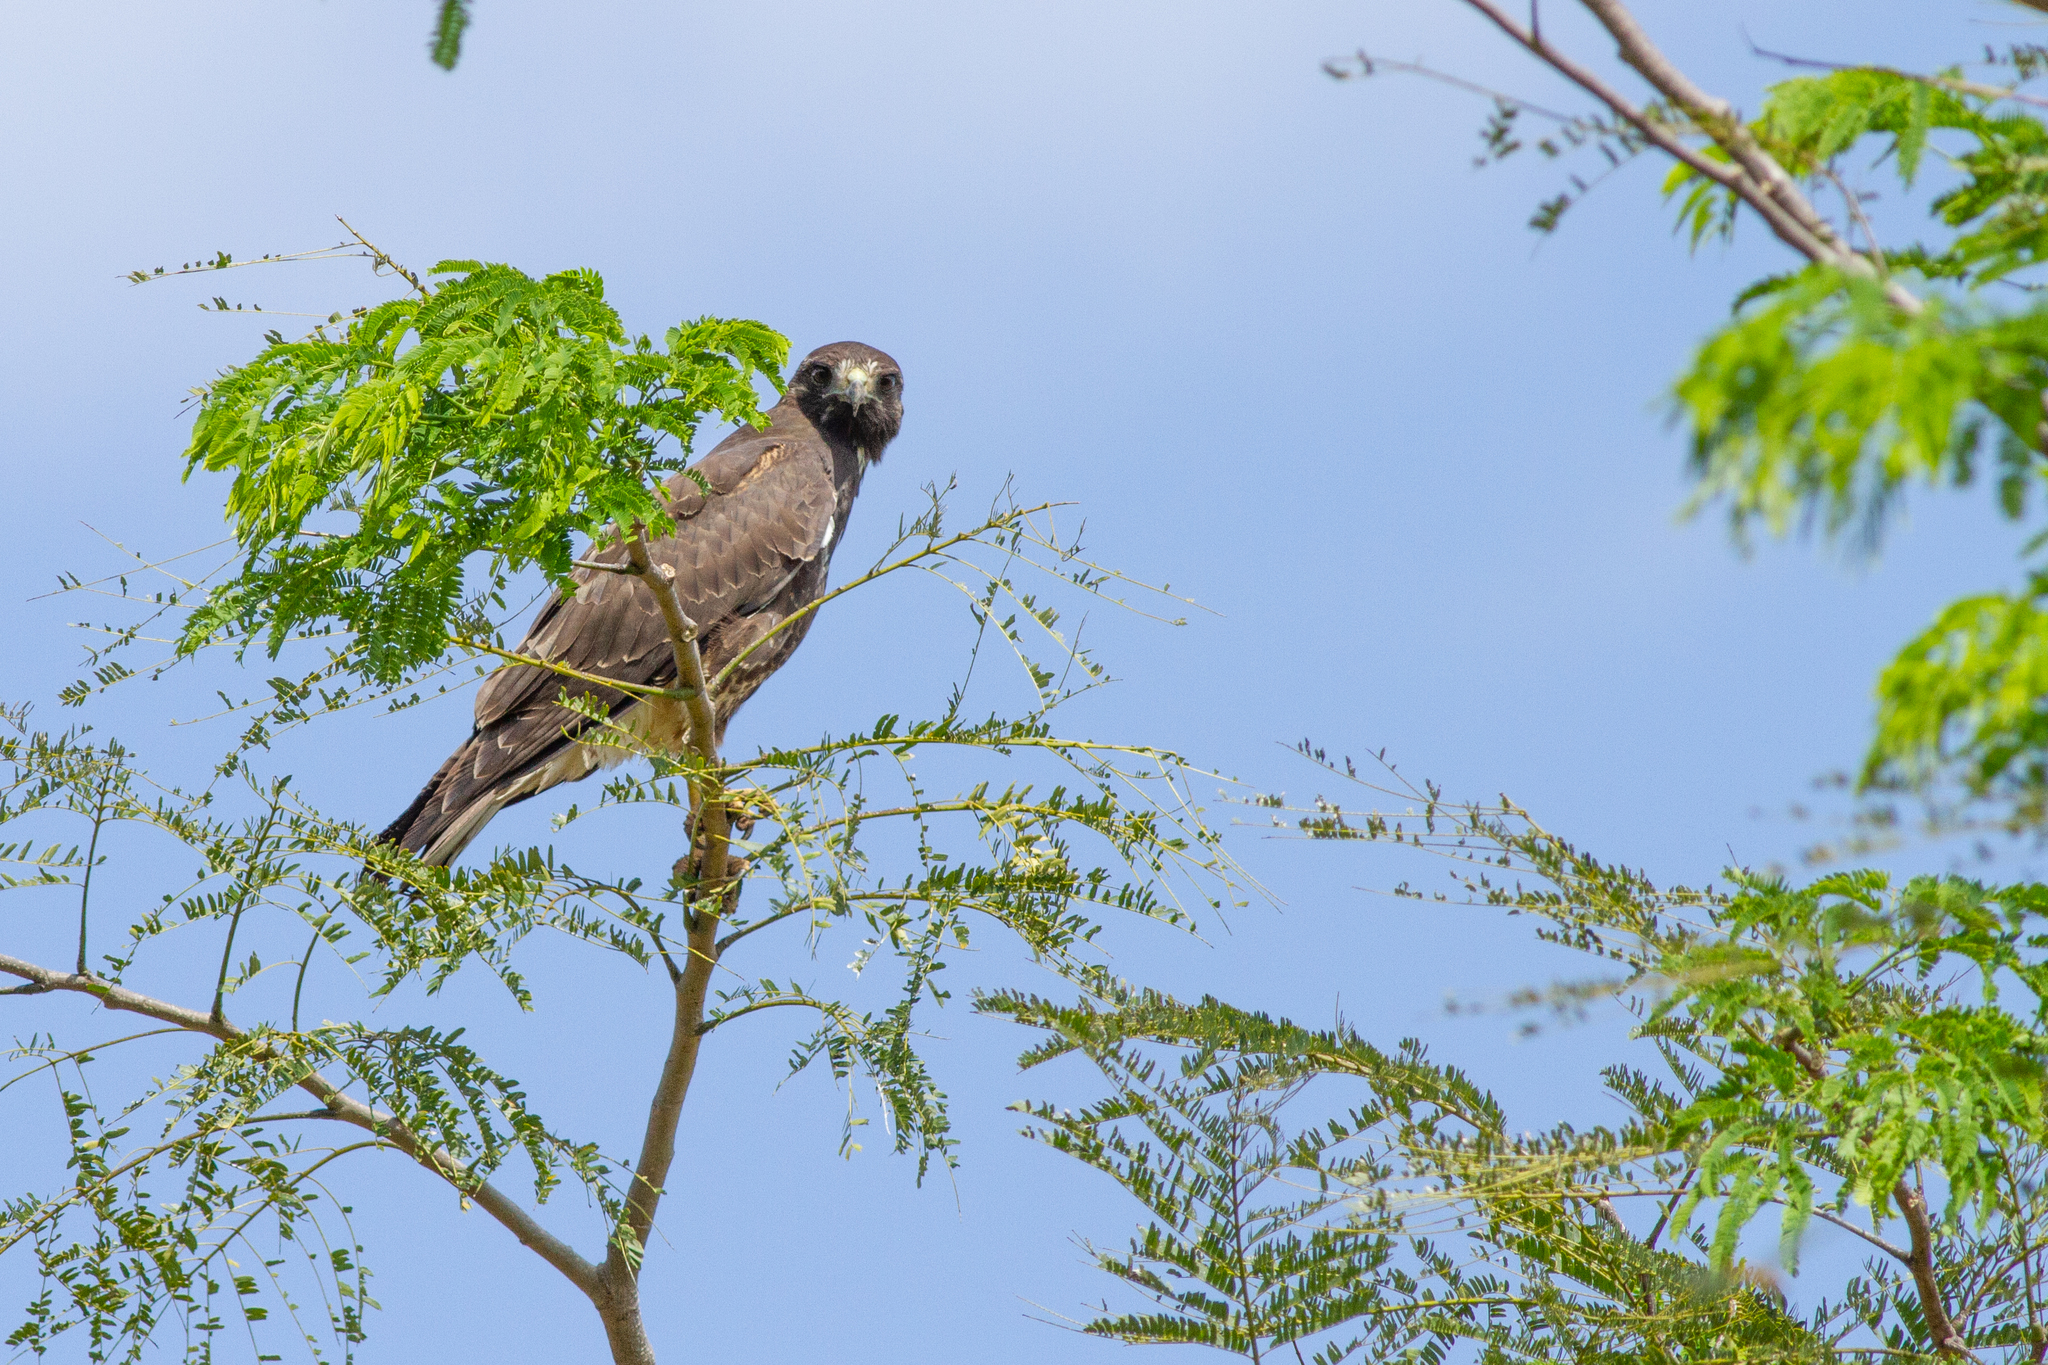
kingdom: Animalia
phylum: Chordata
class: Aves
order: Accipitriformes
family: Accipitridae
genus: Buteo
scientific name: Buteo albicaudatus
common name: White-tailed hawk
